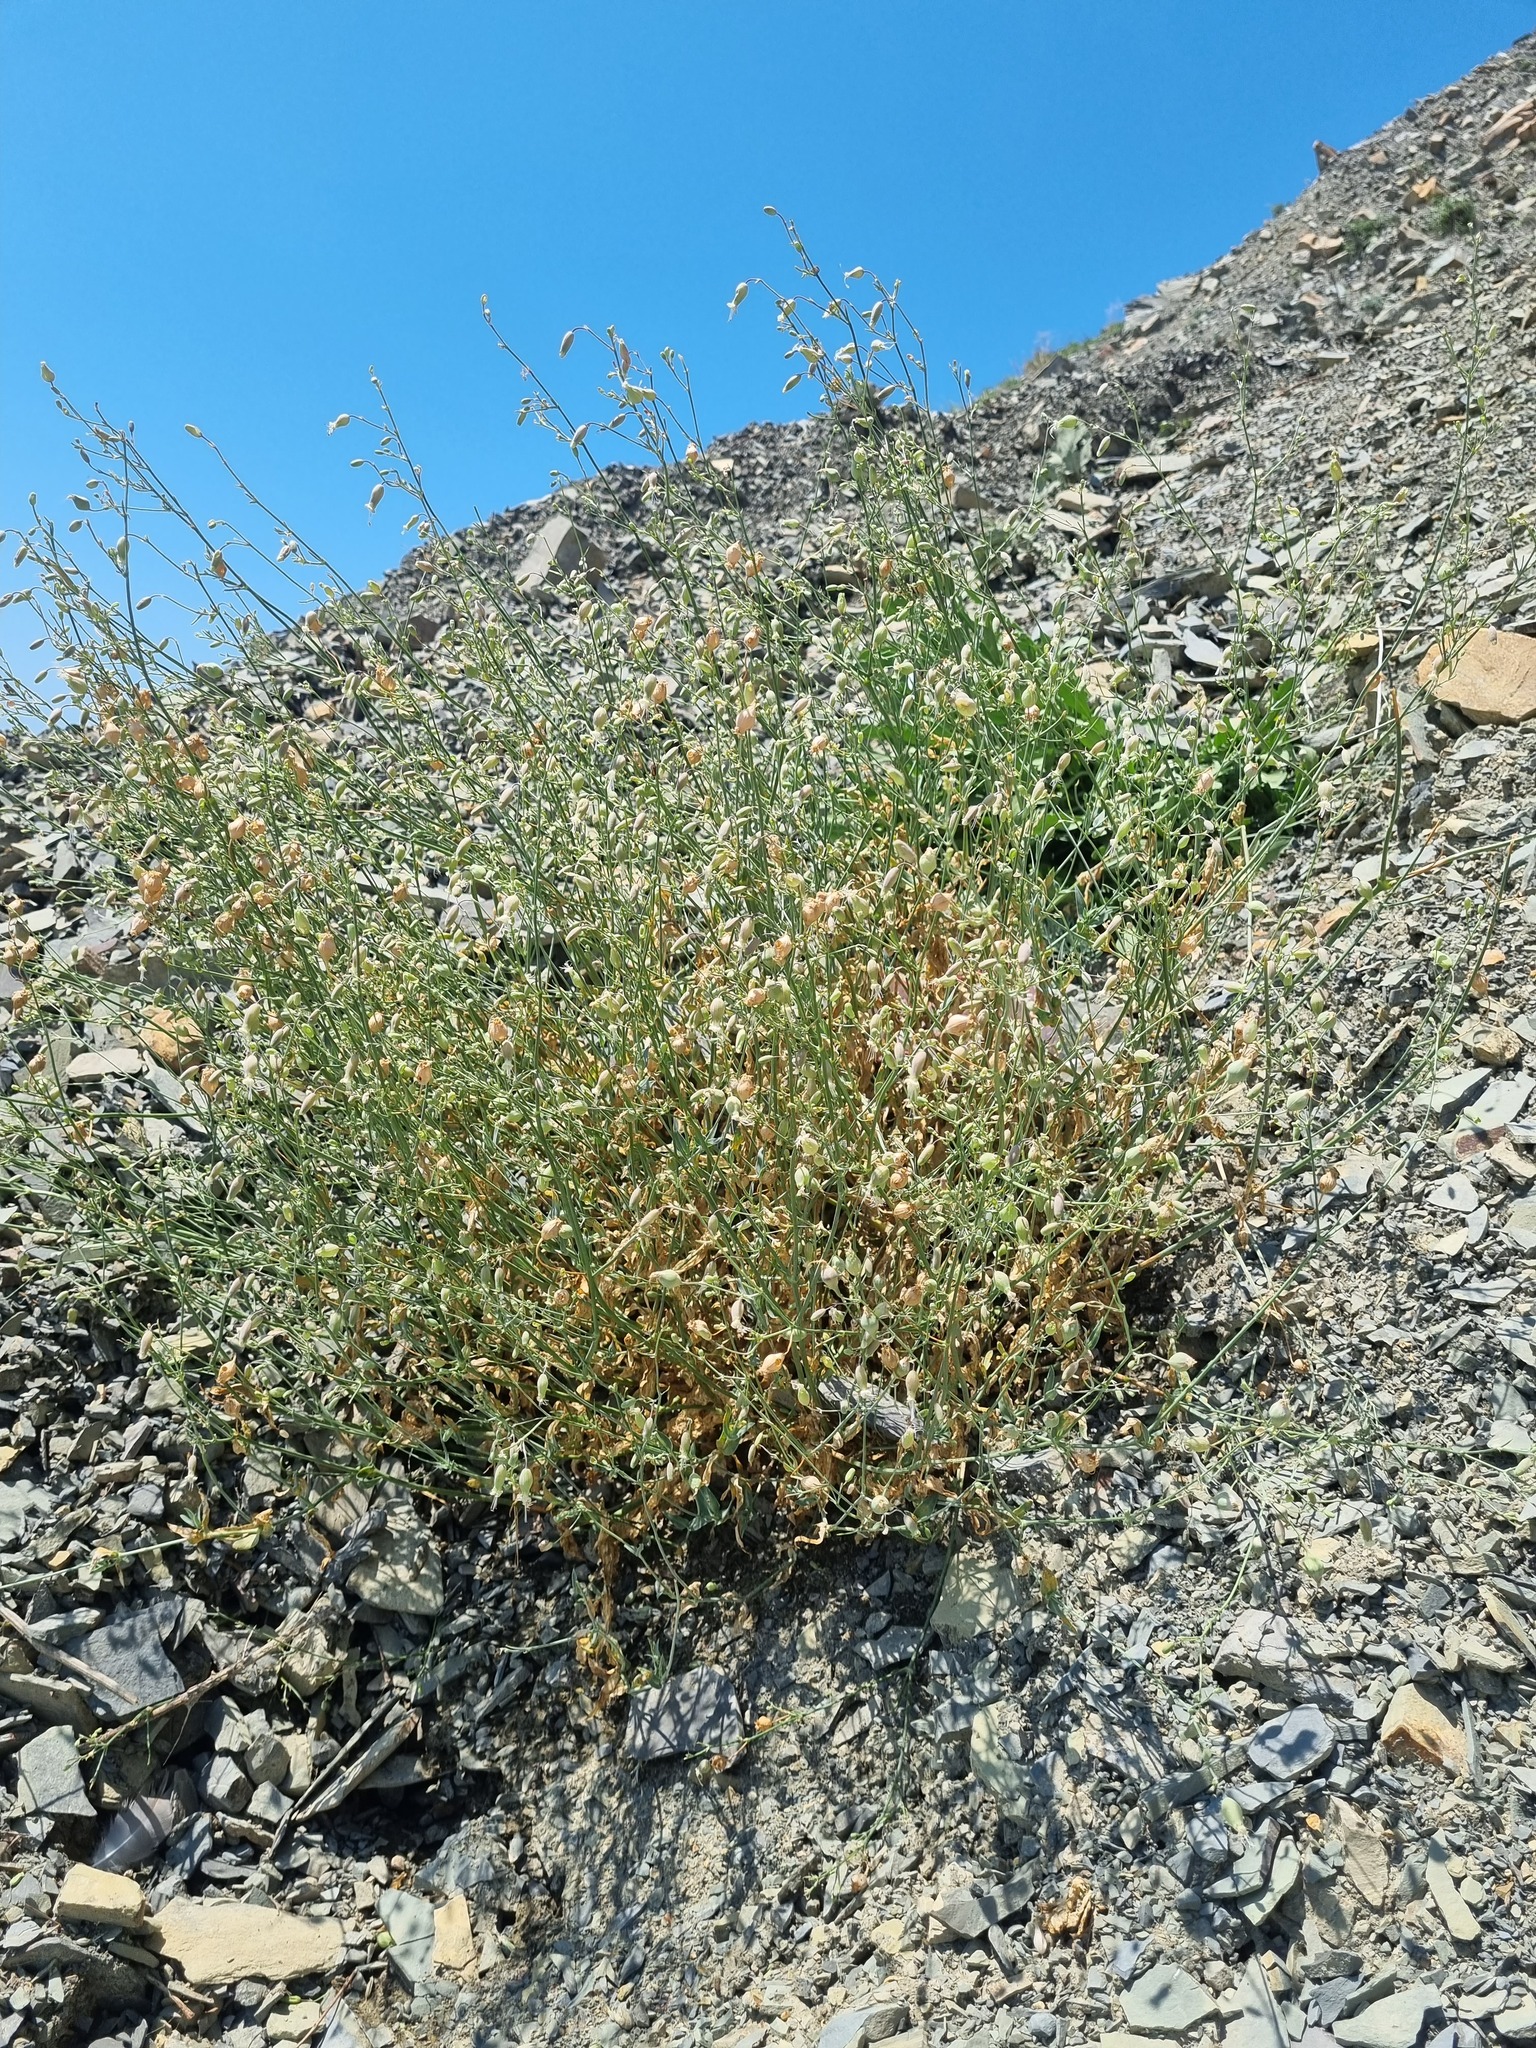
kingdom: Plantae
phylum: Tracheophyta
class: Magnoliopsida
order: Caryophyllales
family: Caryophyllaceae
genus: Silene
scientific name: Silene crispata
